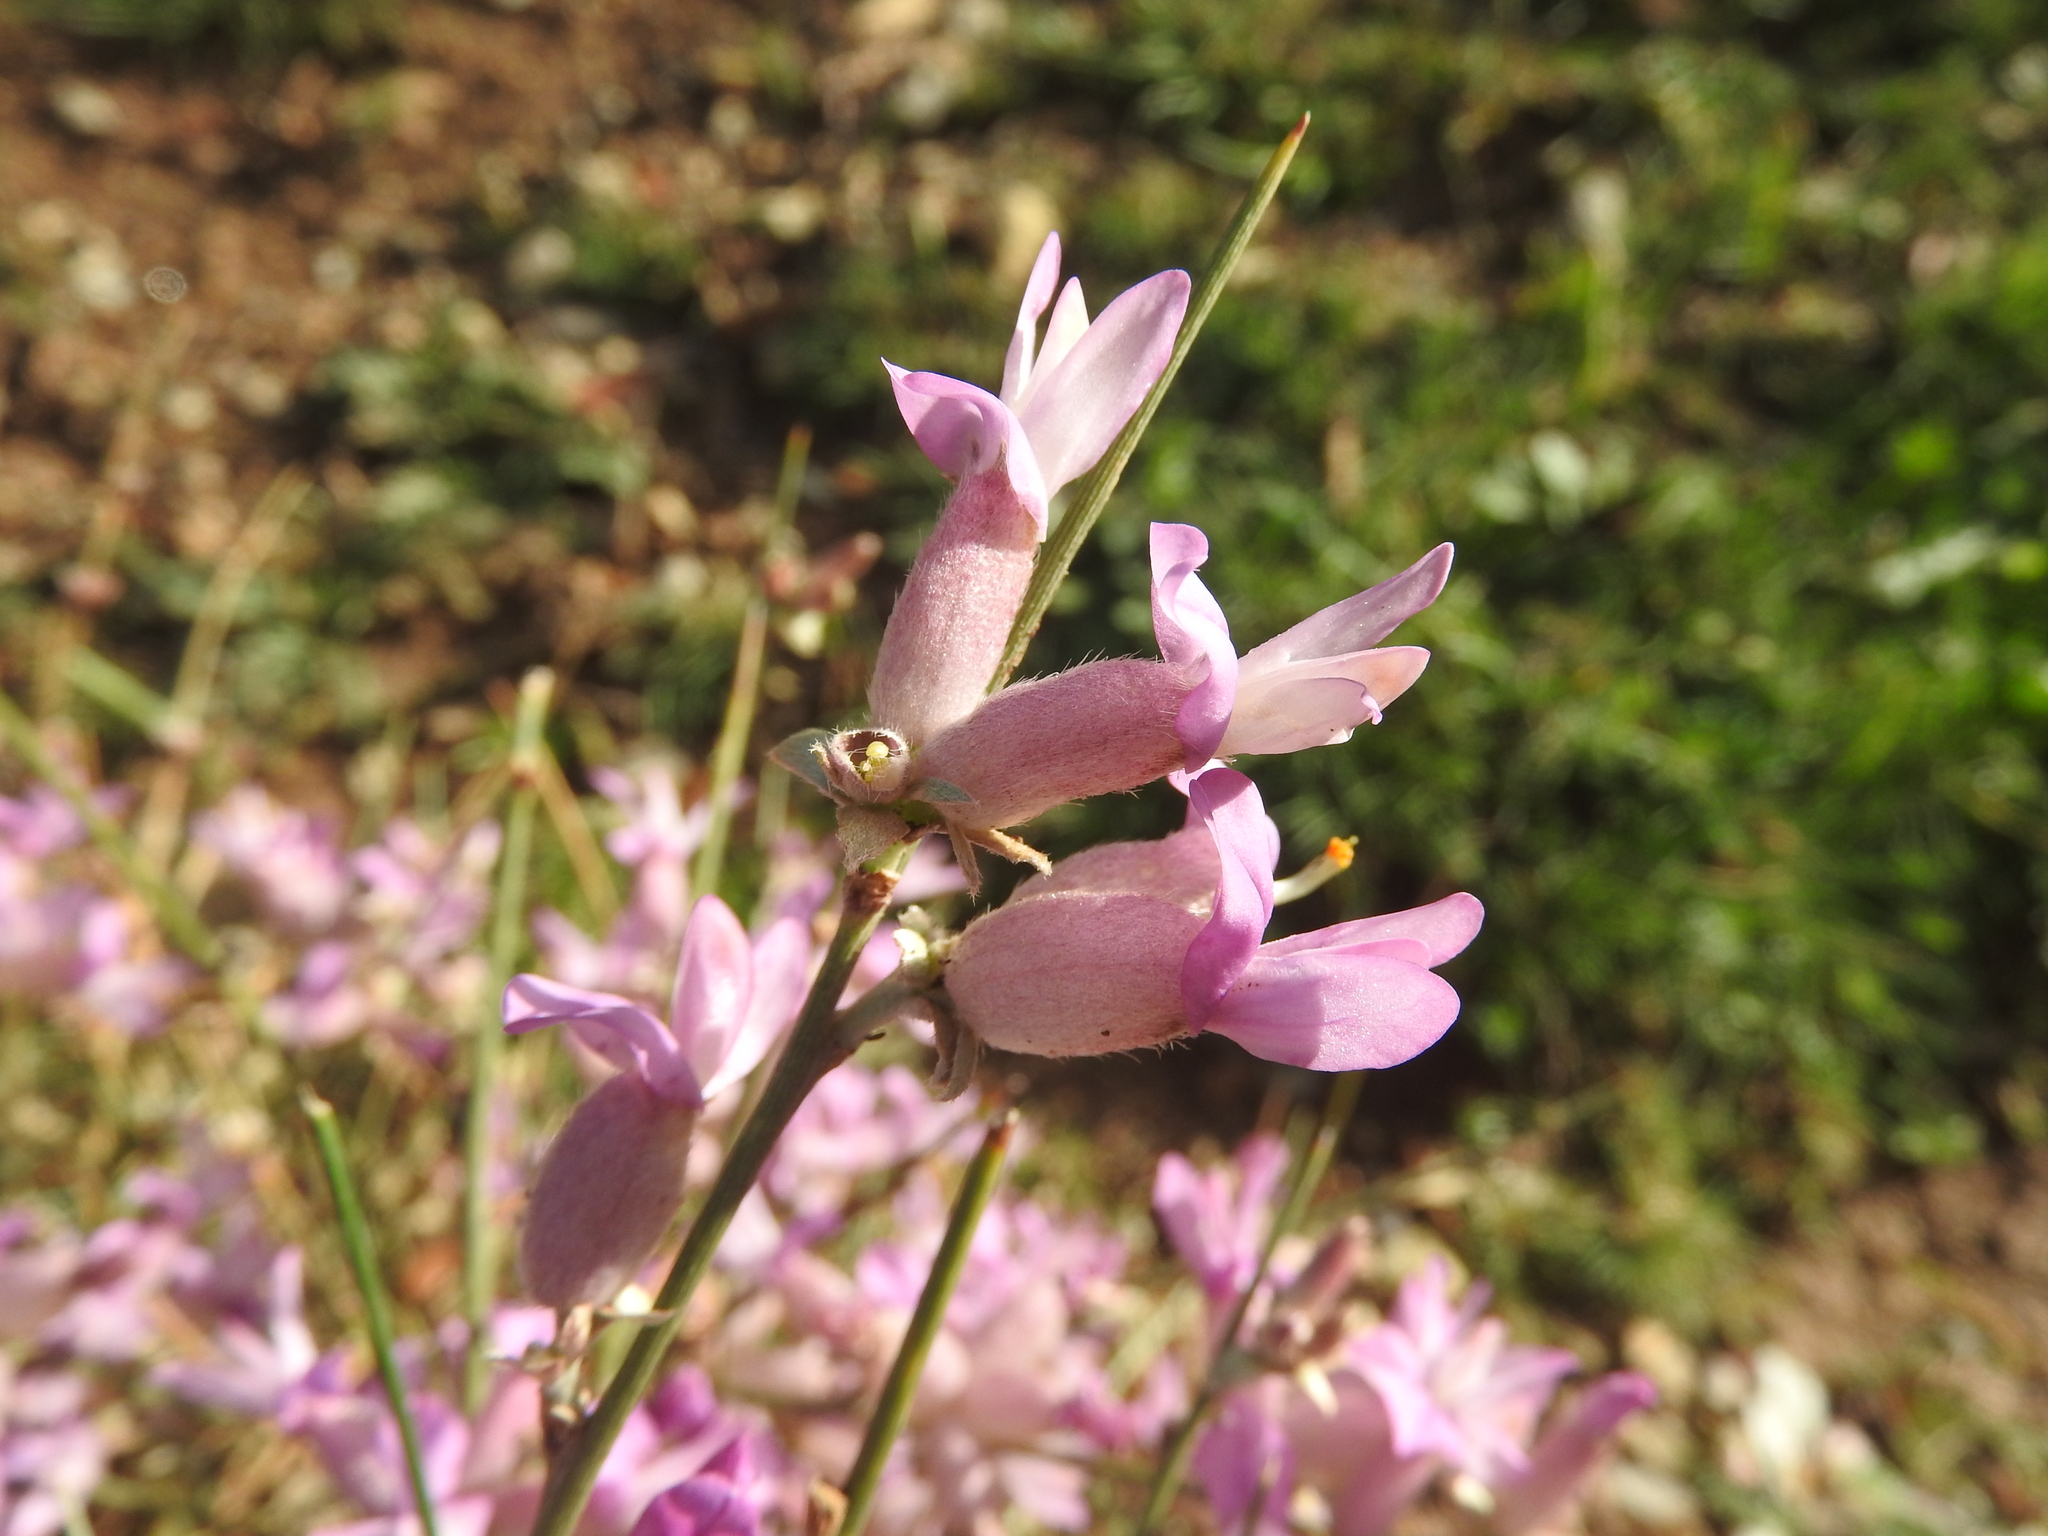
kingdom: Plantae
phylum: Tracheophyta
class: Magnoliopsida
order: Fabales
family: Fabaceae
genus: Erinacea
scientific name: Erinacea anthyllis
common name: Hedgehog-broom
